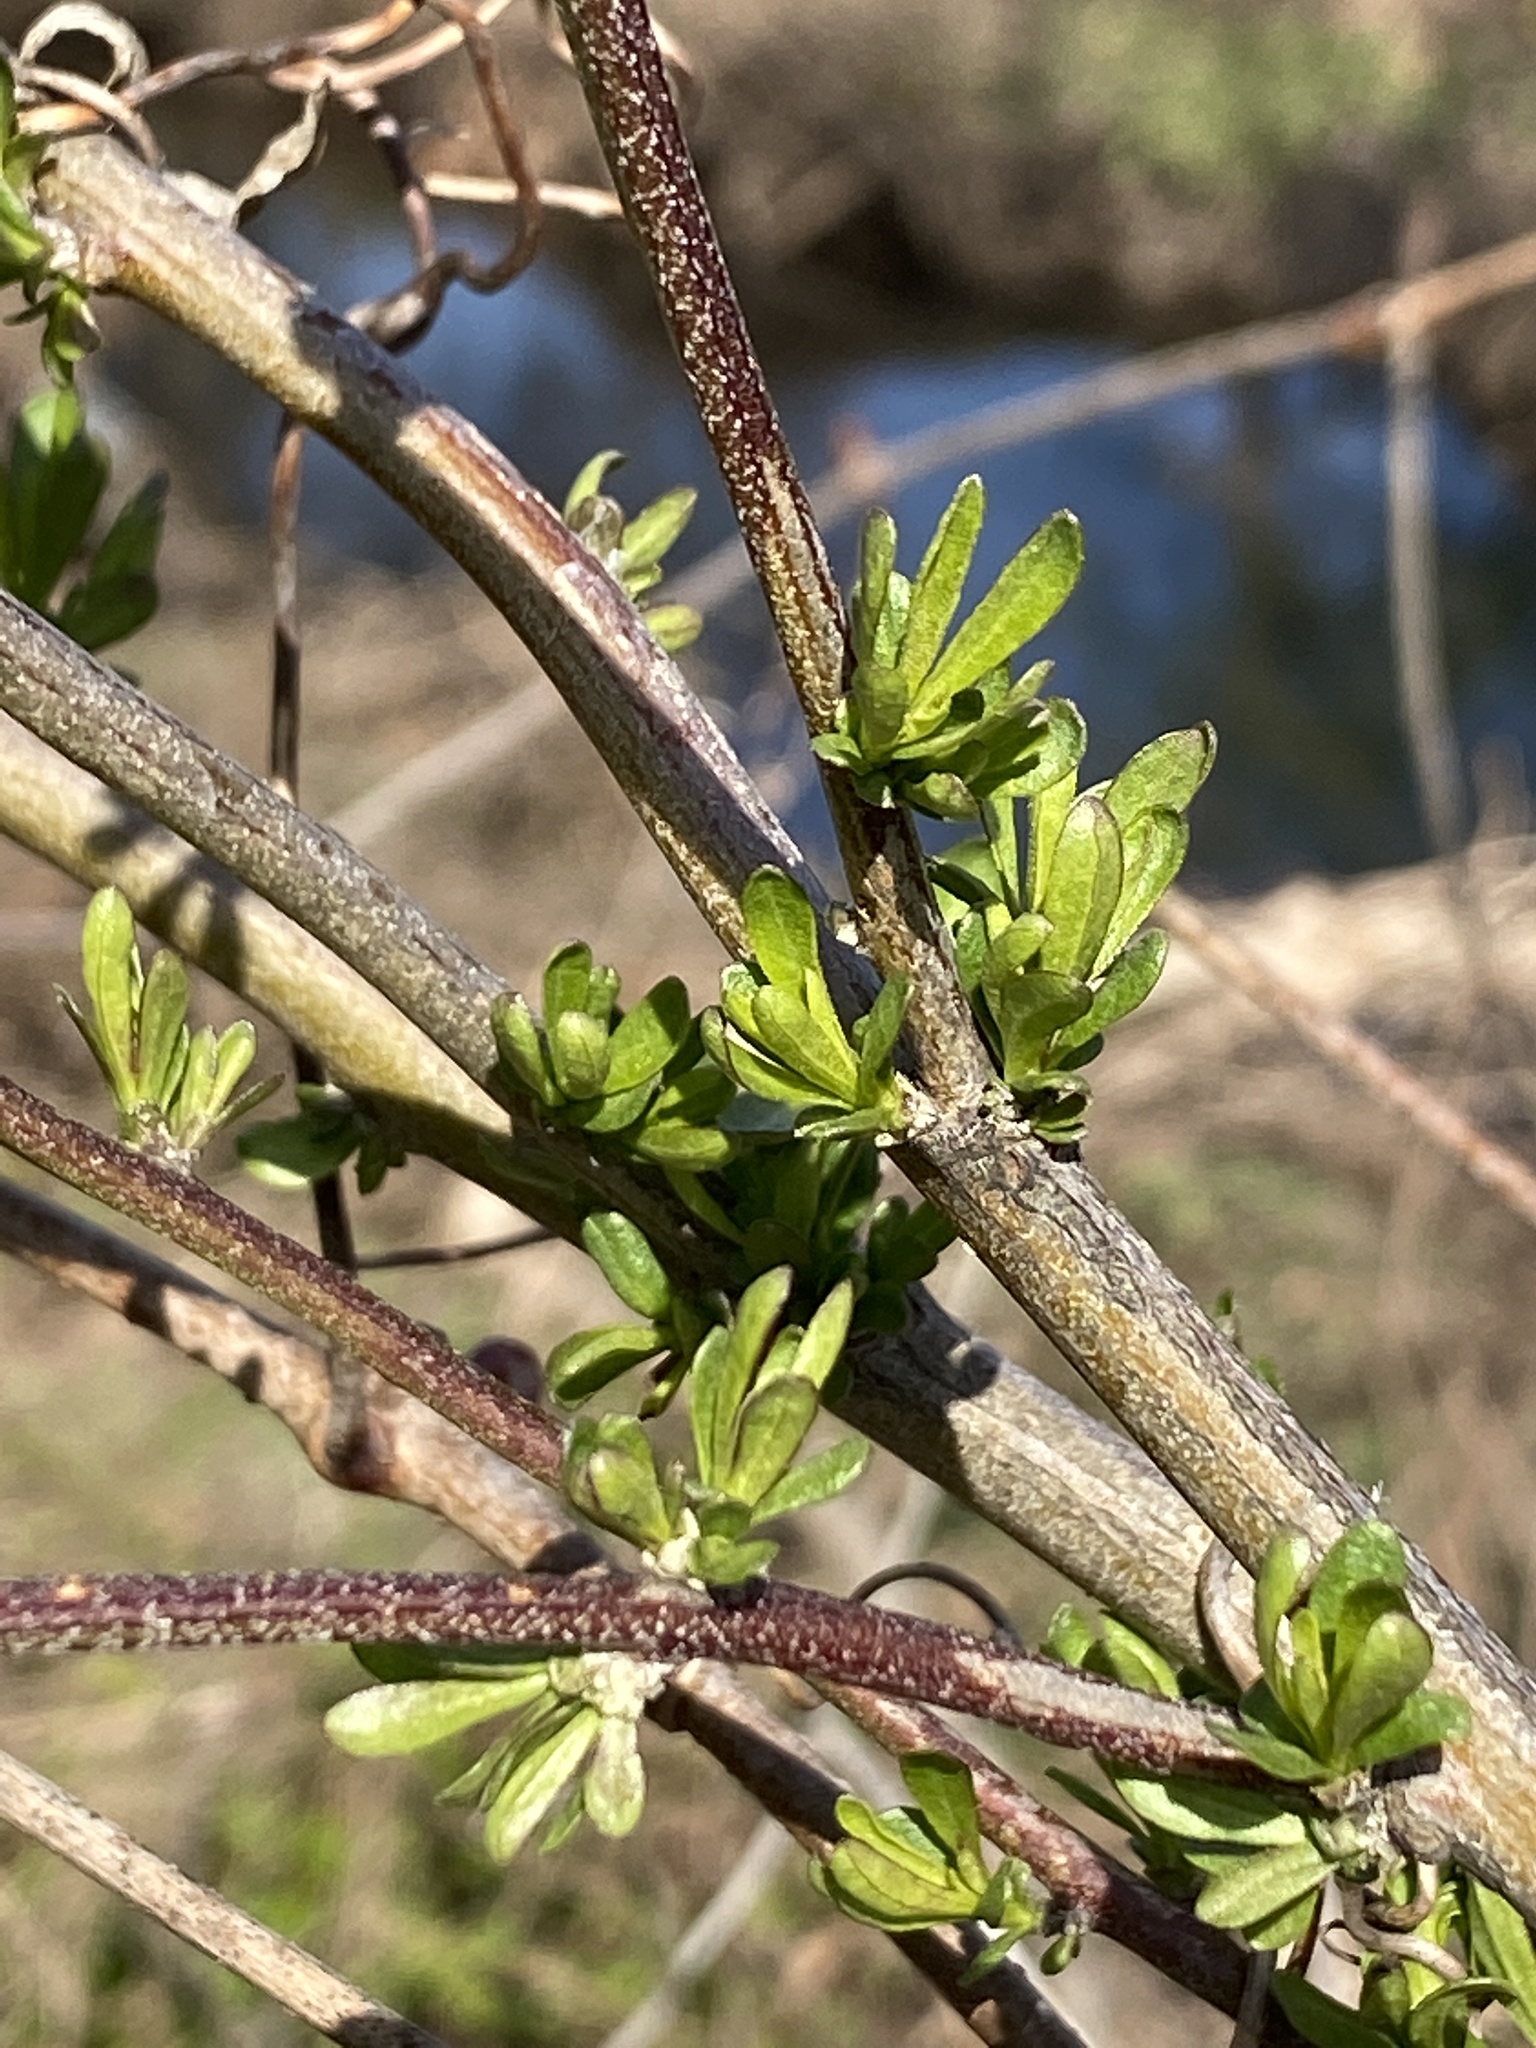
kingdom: Plantae
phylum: Tracheophyta
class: Magnoliopsida
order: Asterales
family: Asteraceae
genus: Baccharis
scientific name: Baccharis halimifolia
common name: Eastern baccharis
